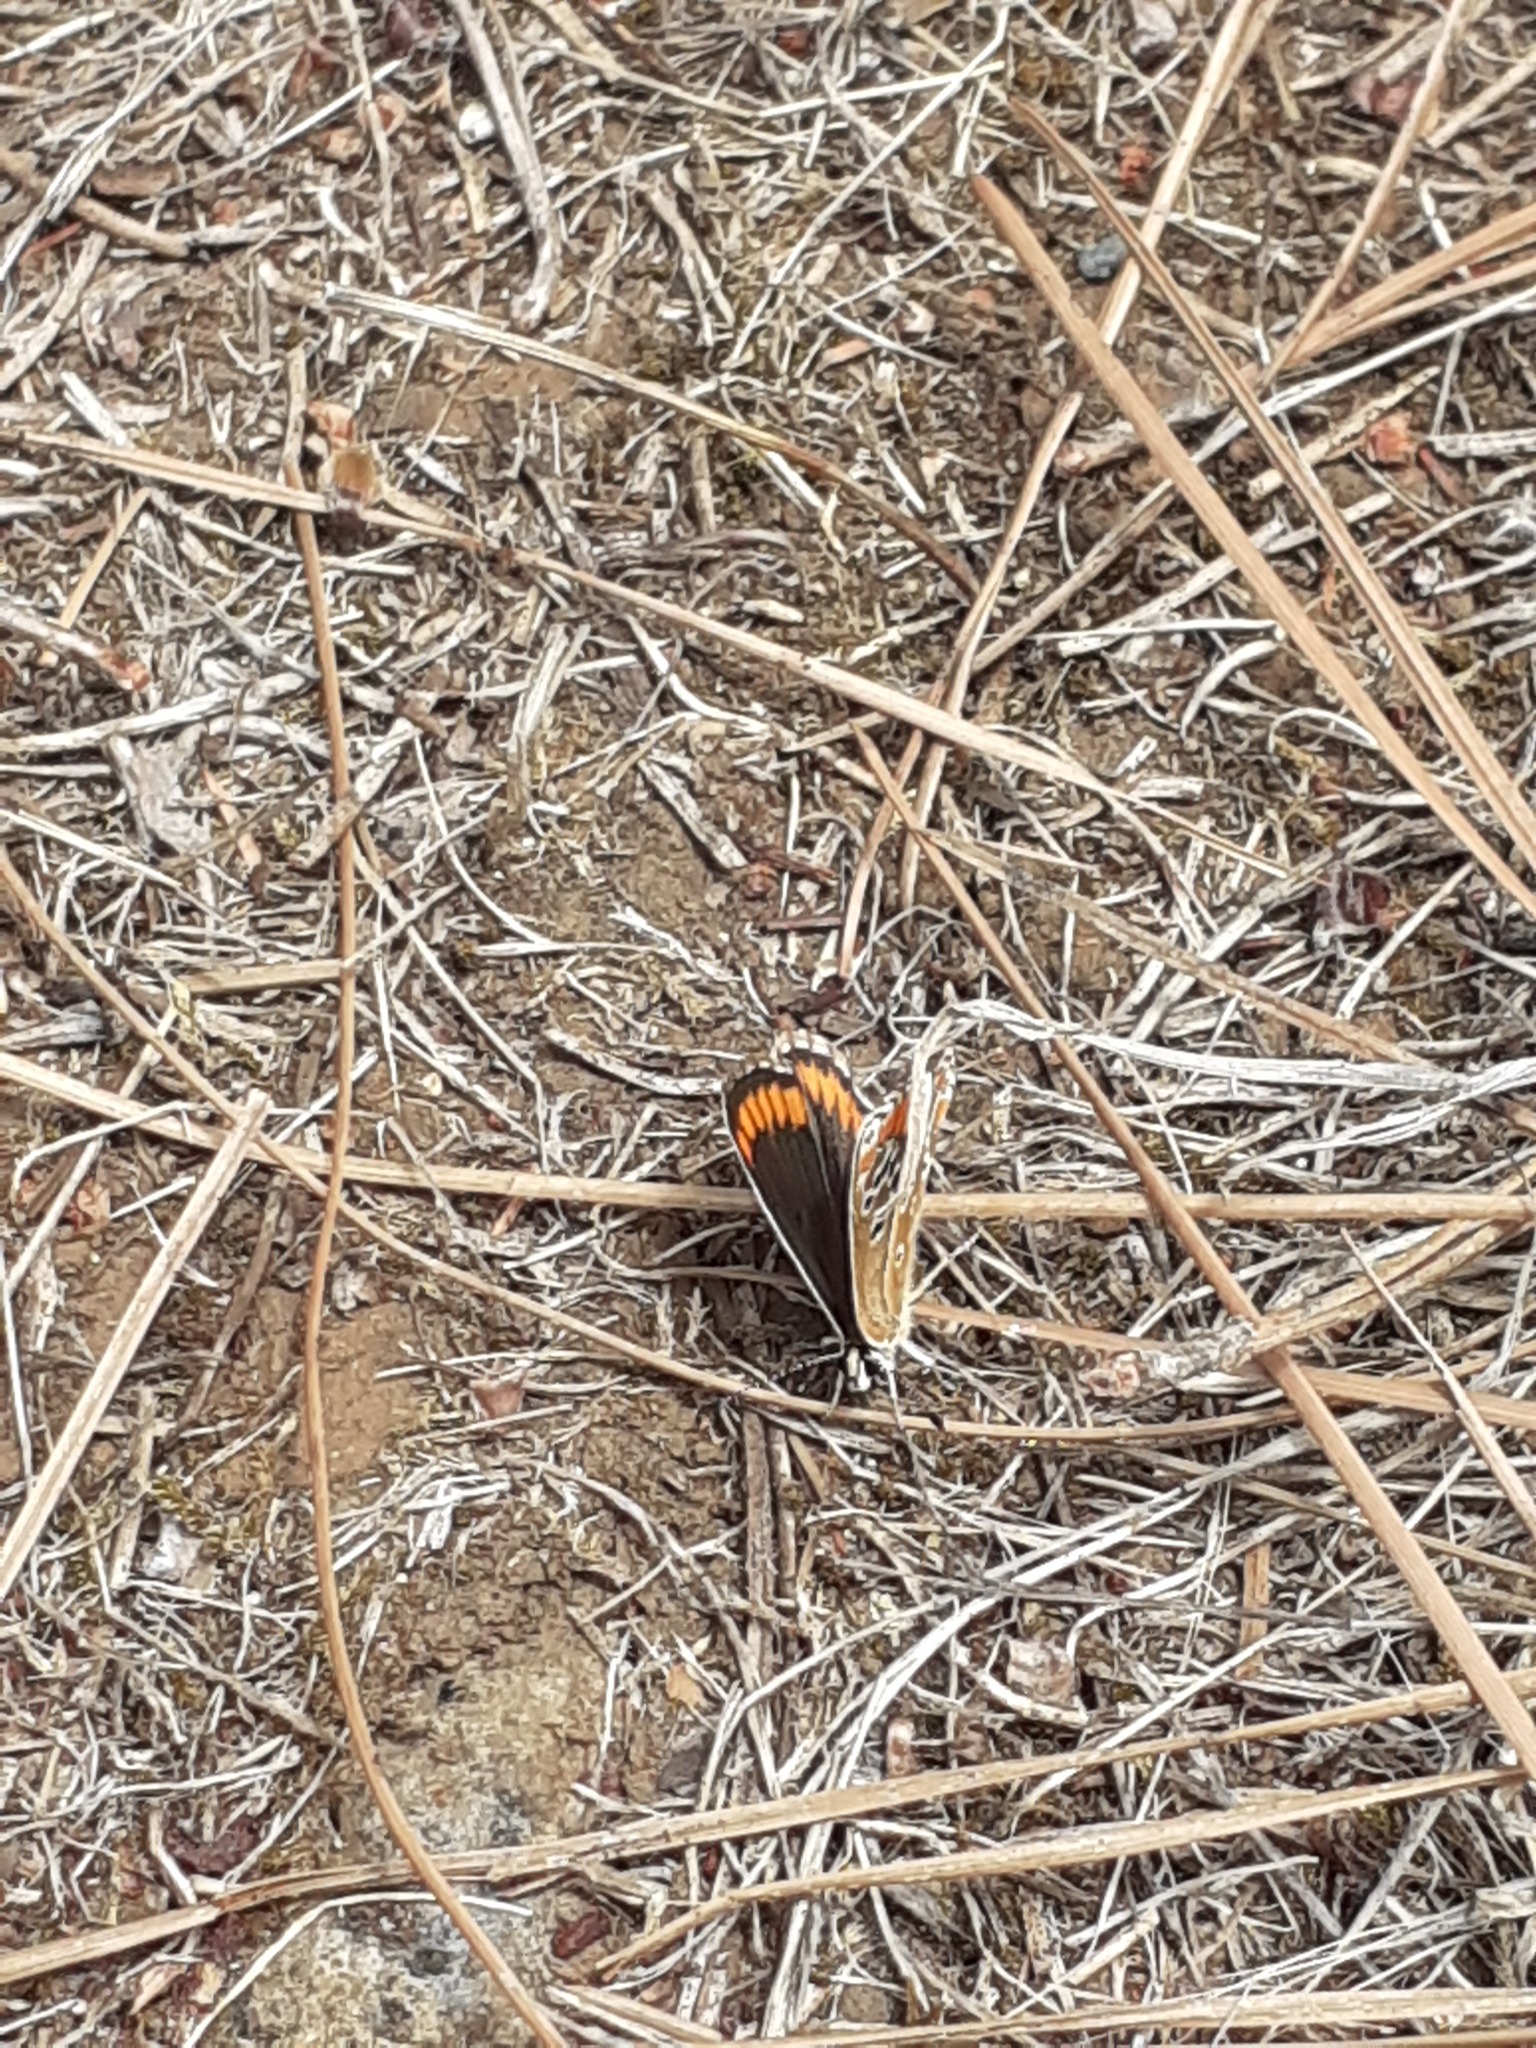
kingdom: Animalia
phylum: Arthropoda
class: Insecta
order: Lepidoptera
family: Lycaenidae
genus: Aricia
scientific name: Aricia cramera
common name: Eschscholtz´s brown  argus
